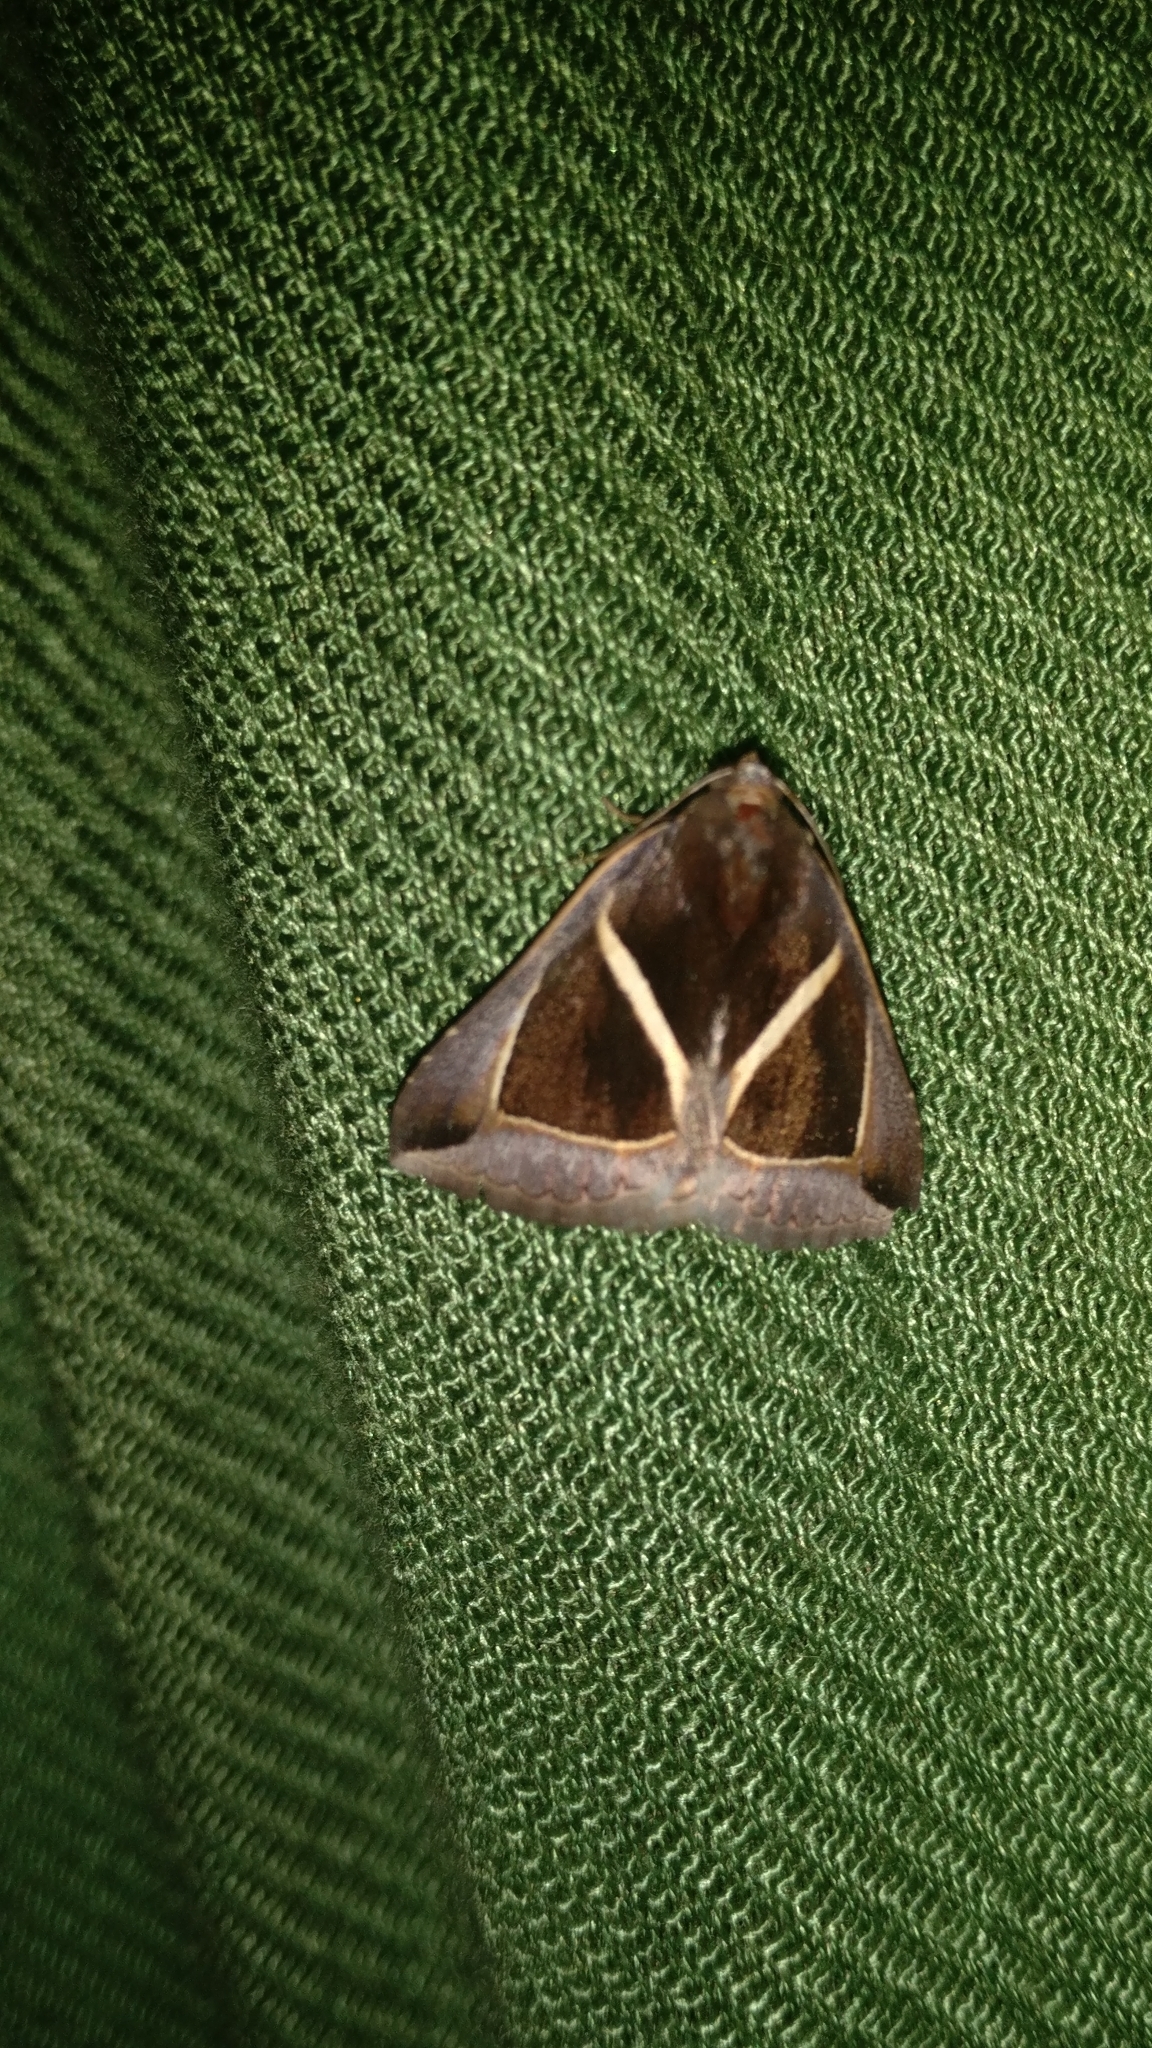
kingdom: Animalia
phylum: Arthropoda
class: Insecta
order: Lepidoptera
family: Erebidae
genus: Chalciope
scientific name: Chalciope mygdon
